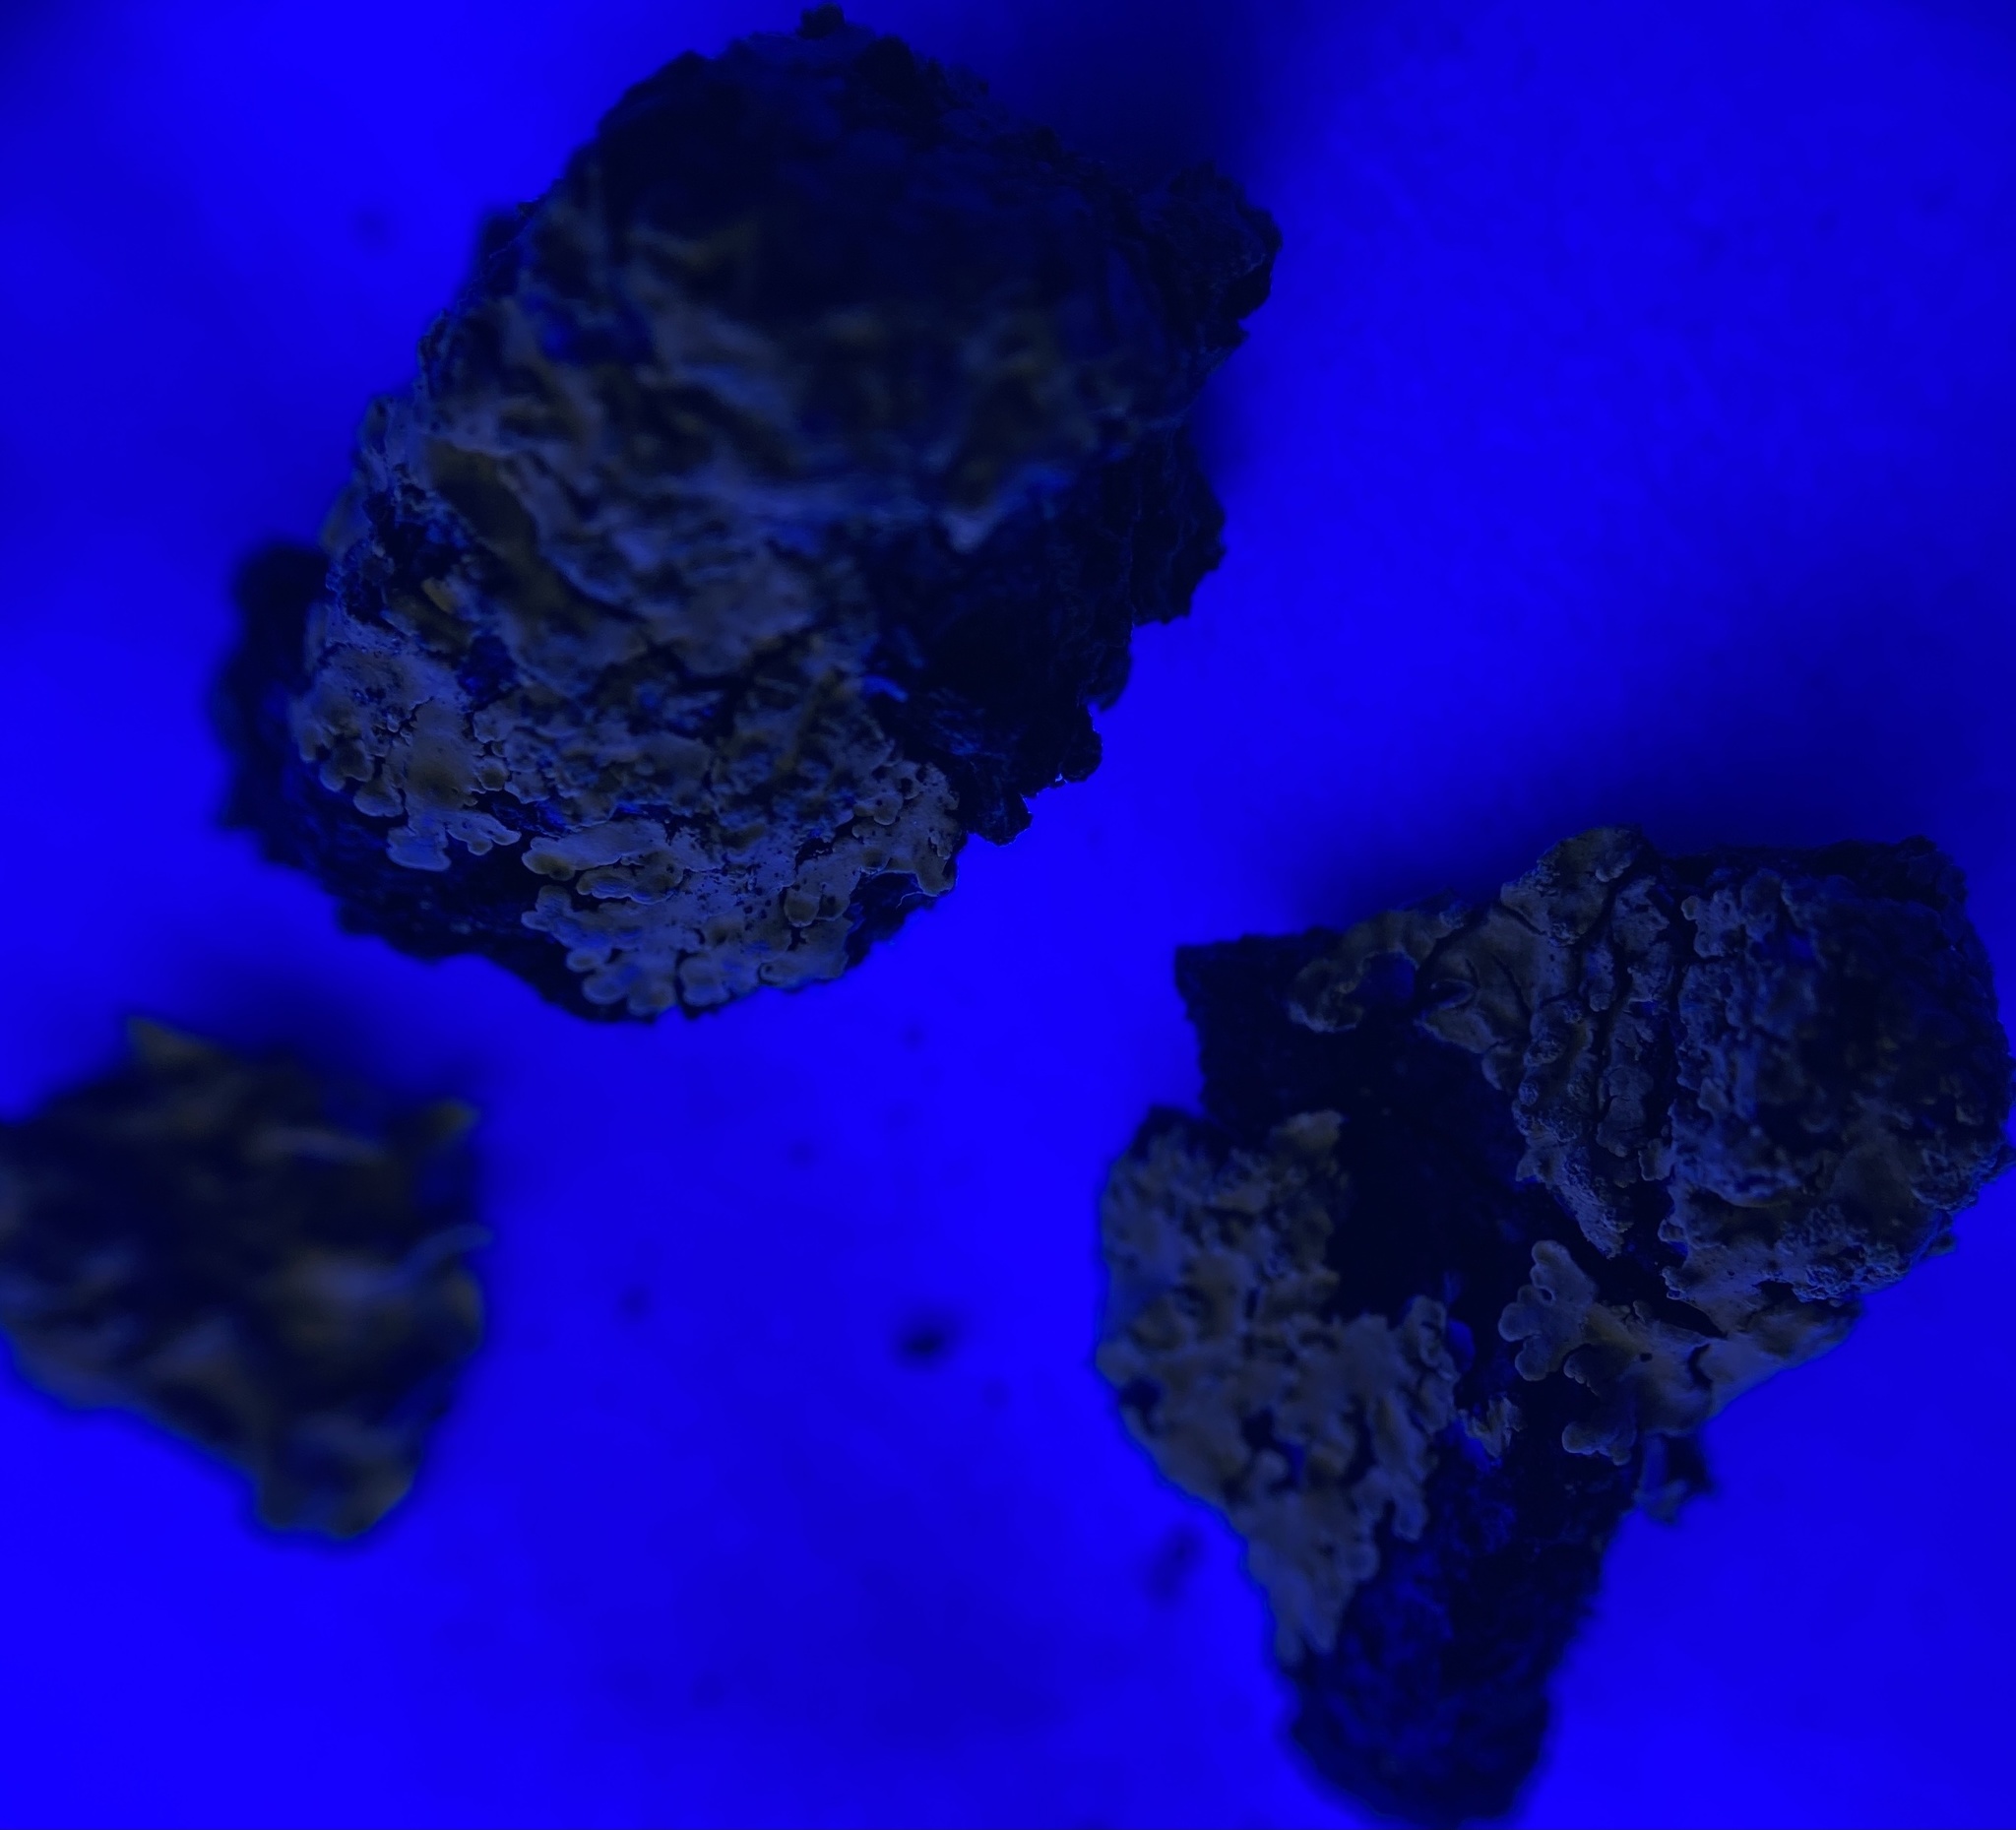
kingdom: Fungi
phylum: Ascomycota
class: Lecanoromycetes
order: Caliciales
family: Caliciaceae
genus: Pyxine
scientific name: Pyxine subcinerea
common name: Mustard lichen
